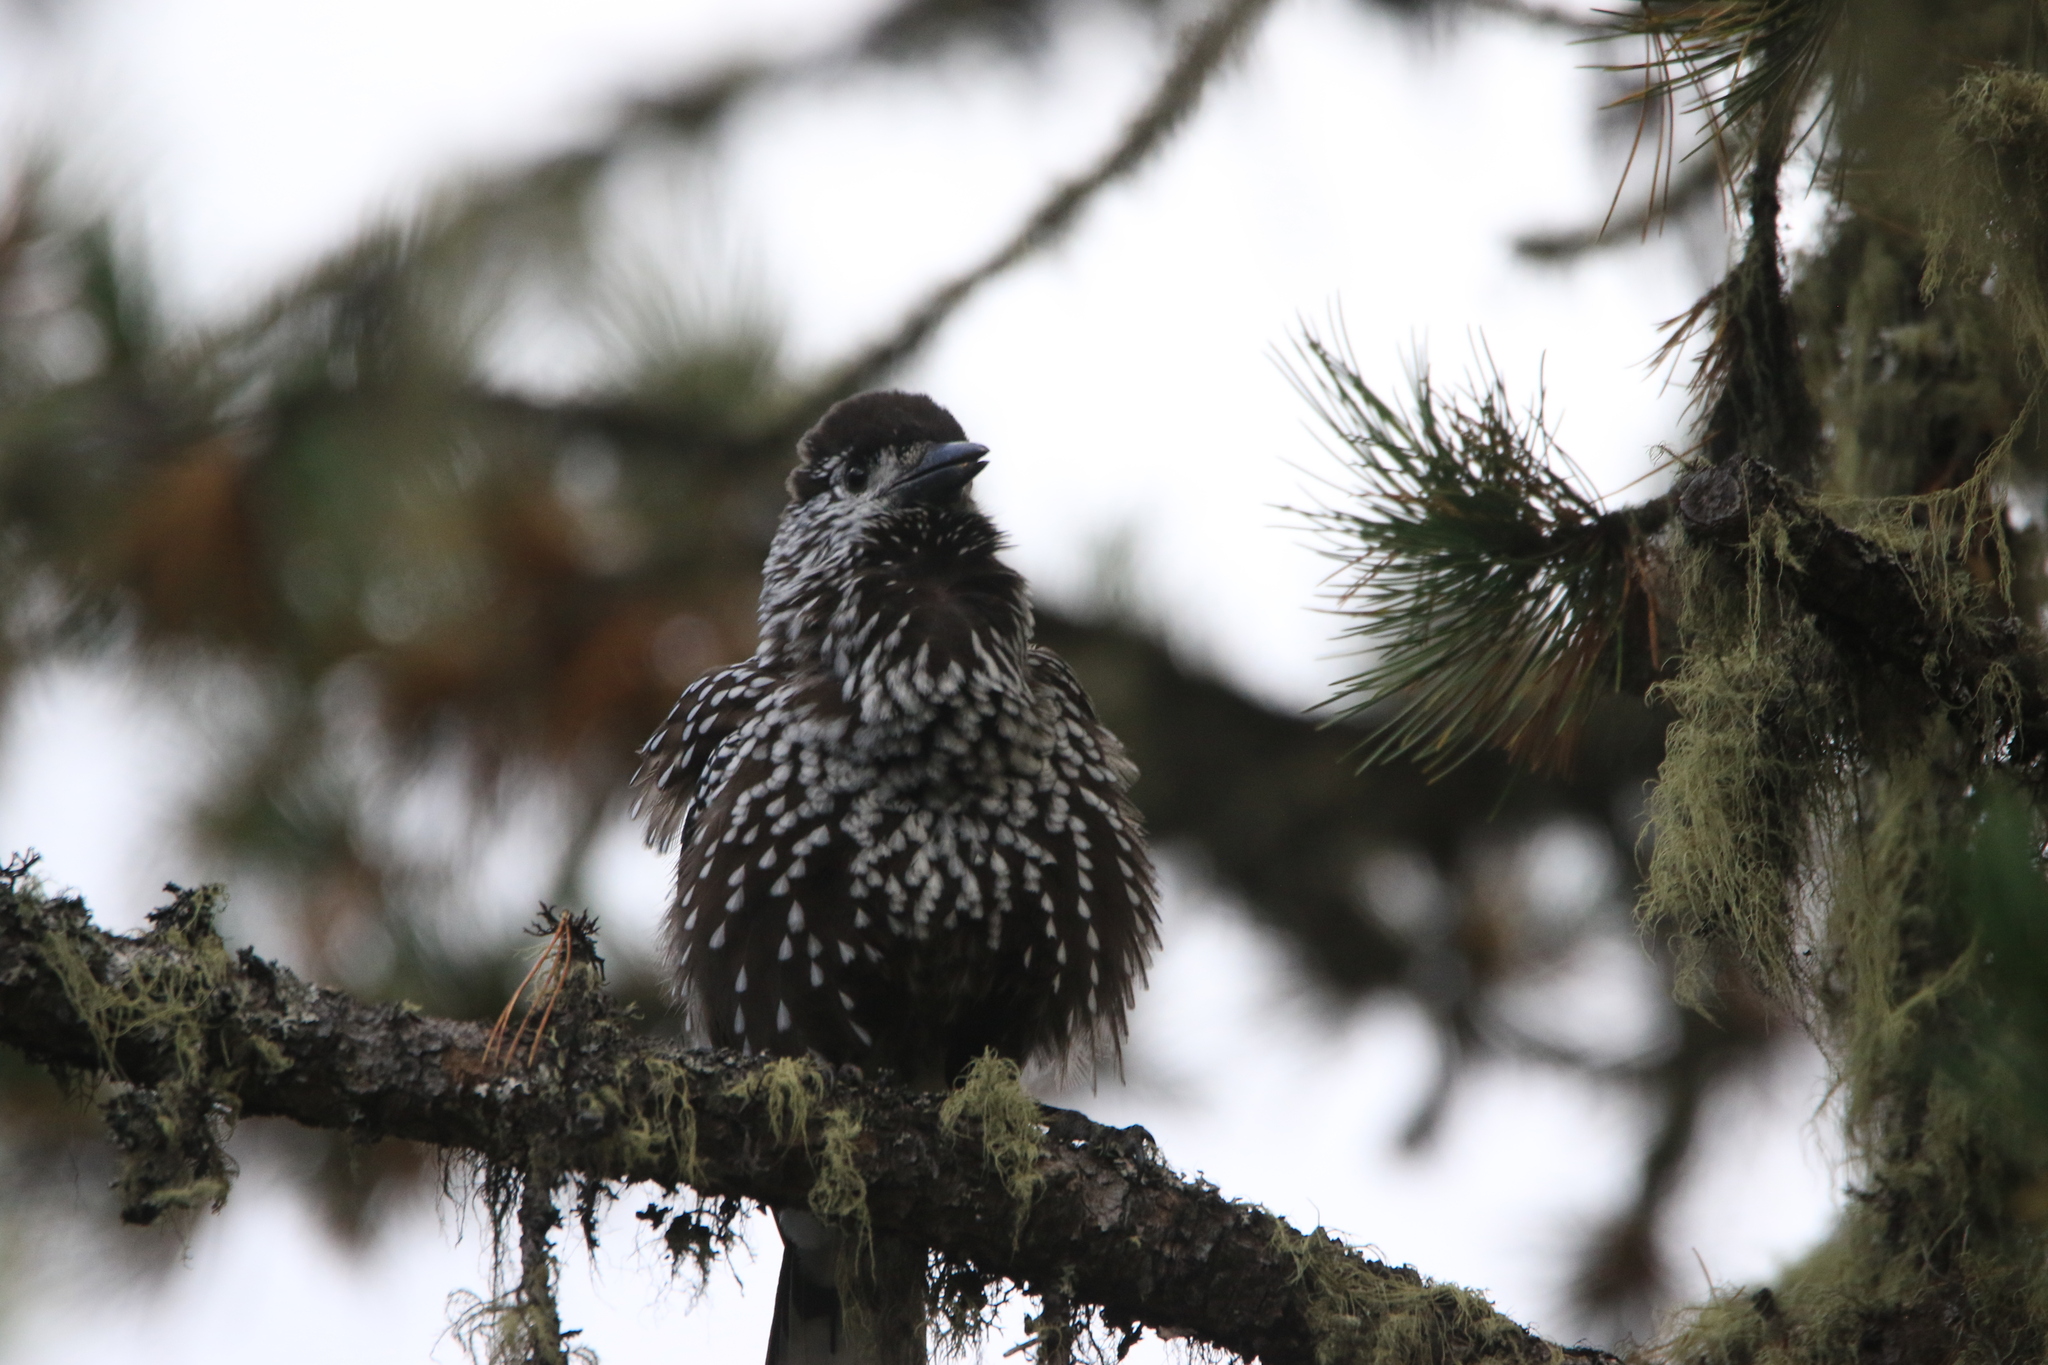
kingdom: Animalia
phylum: Chordata
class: Aves
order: Passeriformes
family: Corvidae
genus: Nucifraga
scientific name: Nucifraga caryocatactes
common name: Spotted nutcracker
